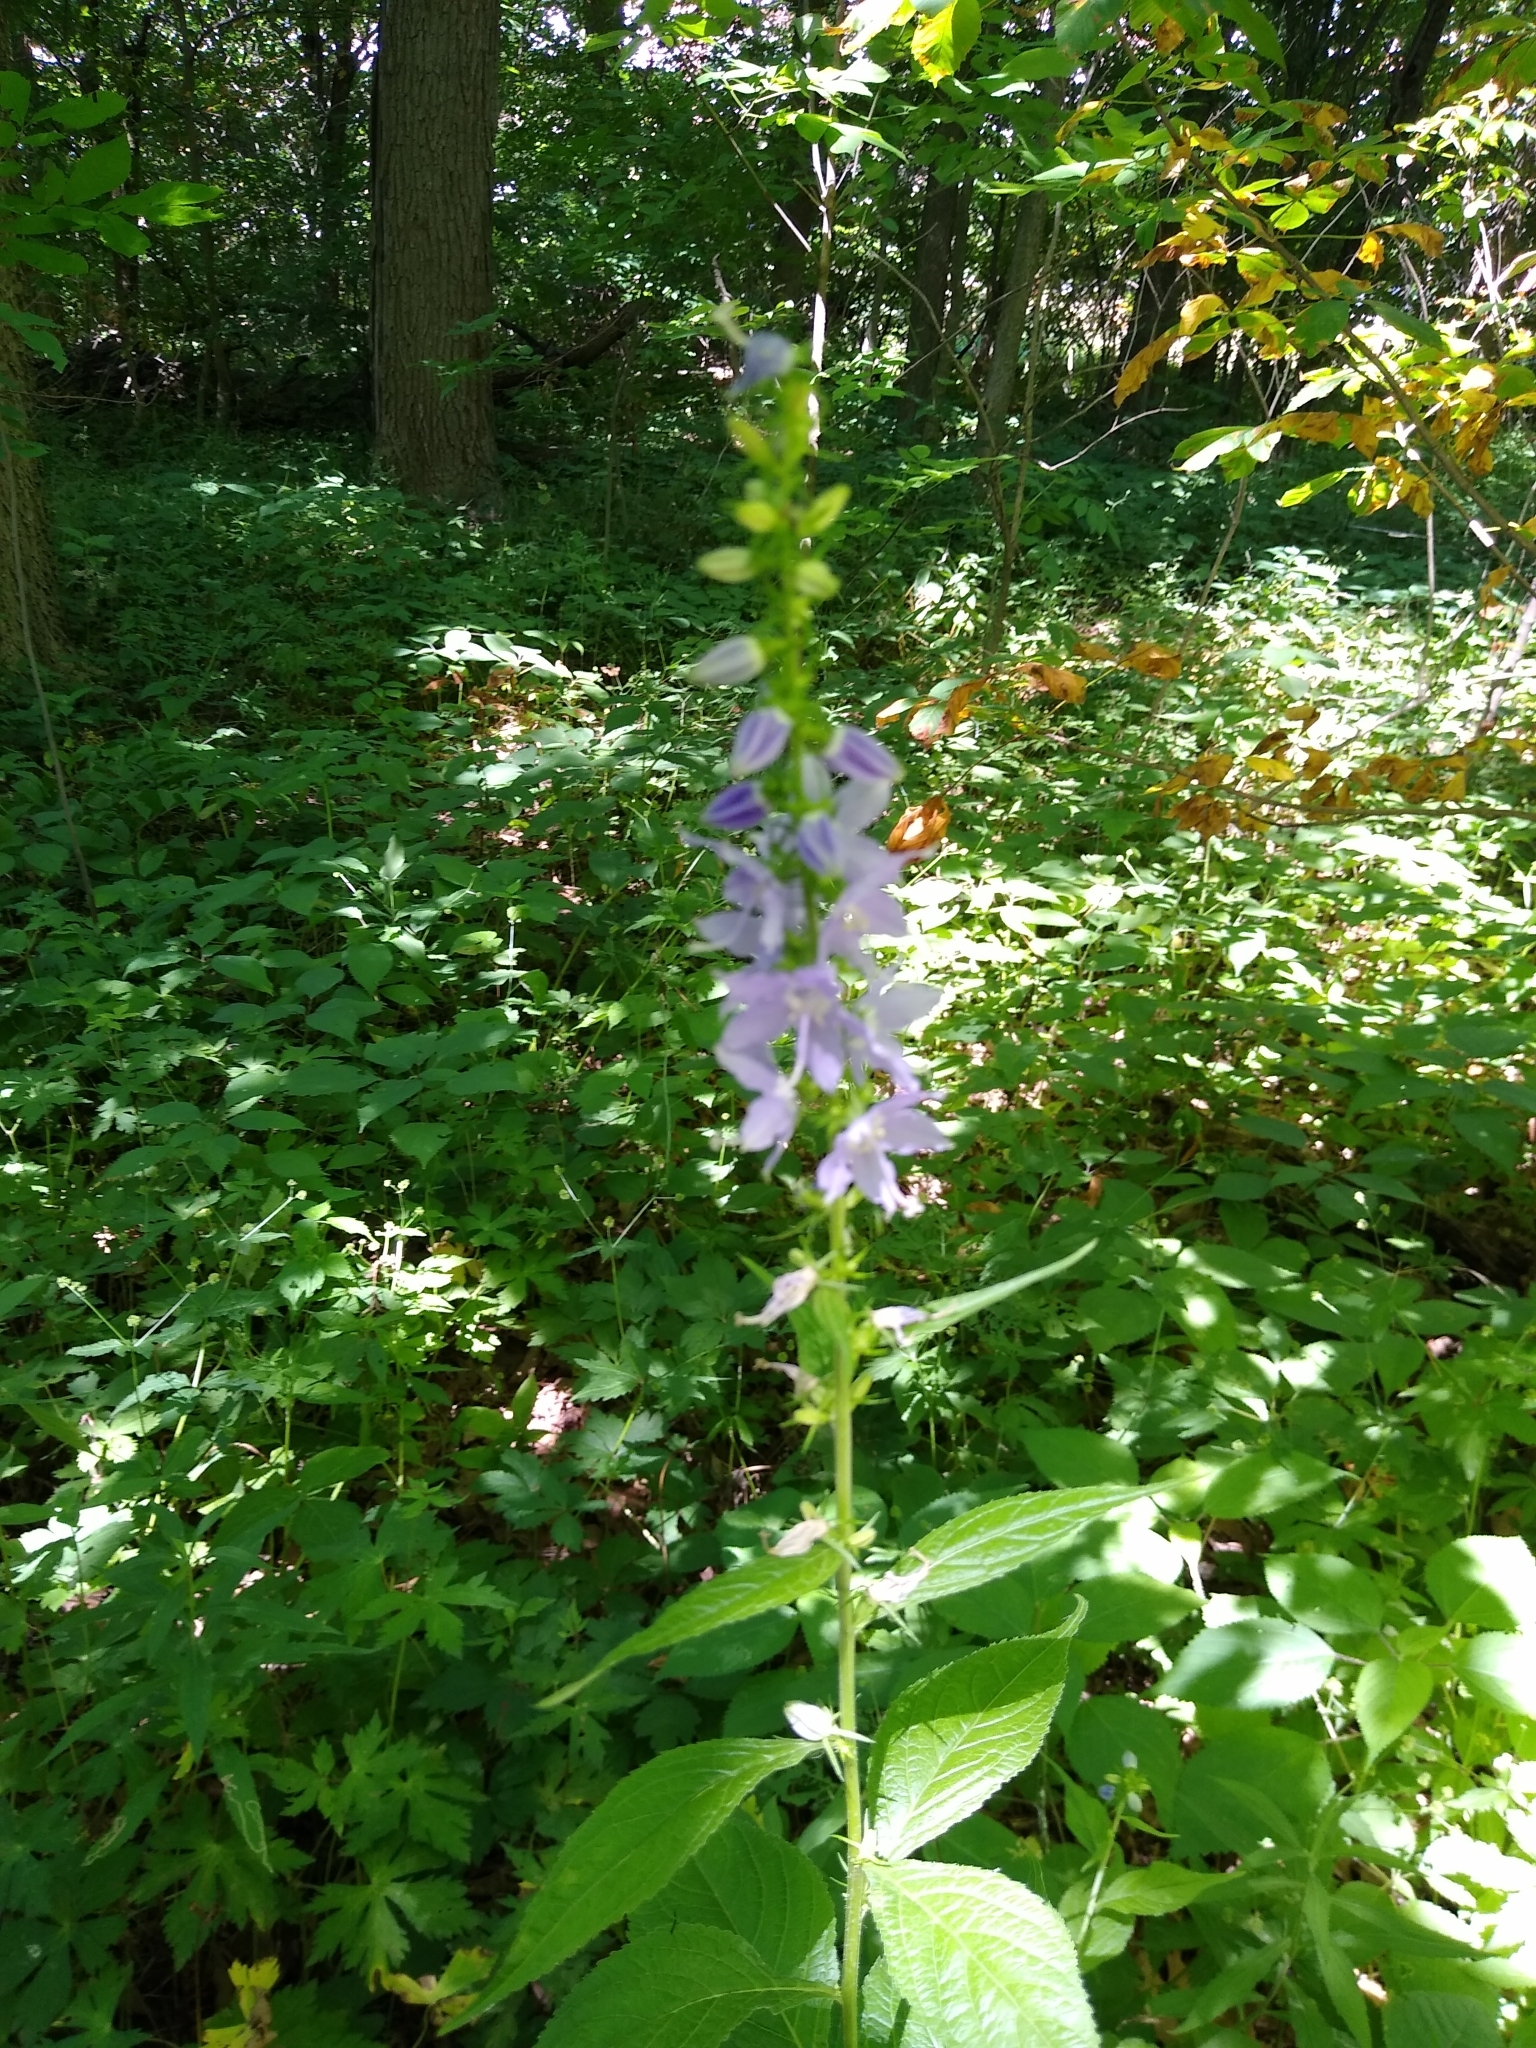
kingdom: Plantae
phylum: Tracheophyta
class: Magnoliopsida
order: Asterales
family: Campanulaceae
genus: Campanulastrum
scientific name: Campanulastrum americanum
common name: American bellflower
